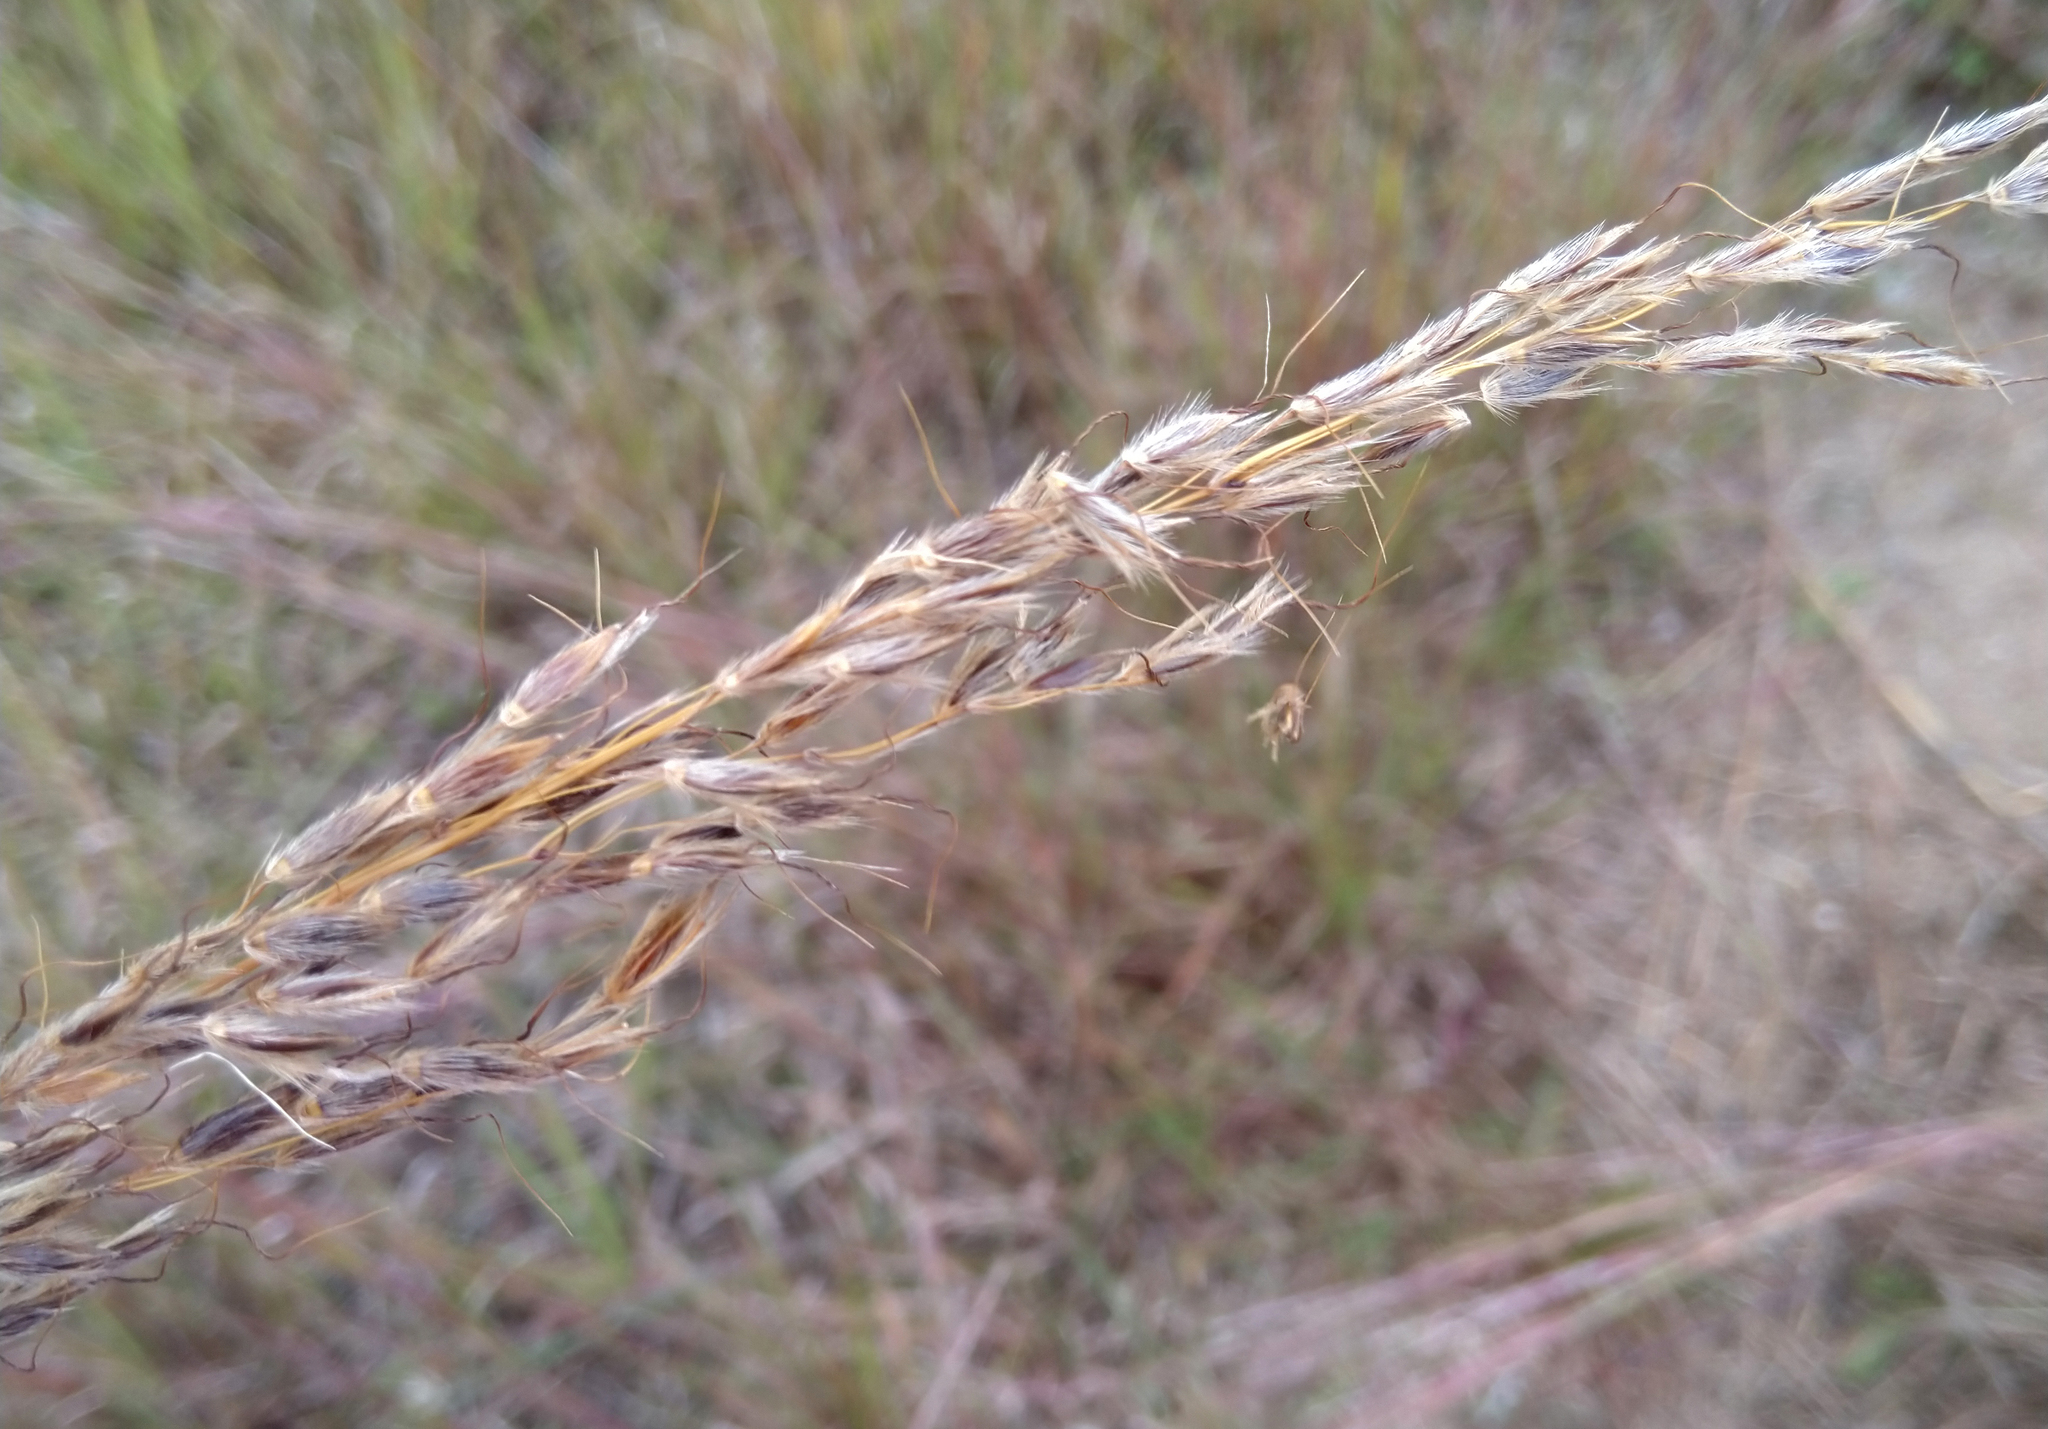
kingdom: Plantae
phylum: Tracheophyta
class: Liliopsida
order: Poales
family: Poaceae
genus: Sorghastrum
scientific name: Sorghastrum nutans
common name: Indian grass
